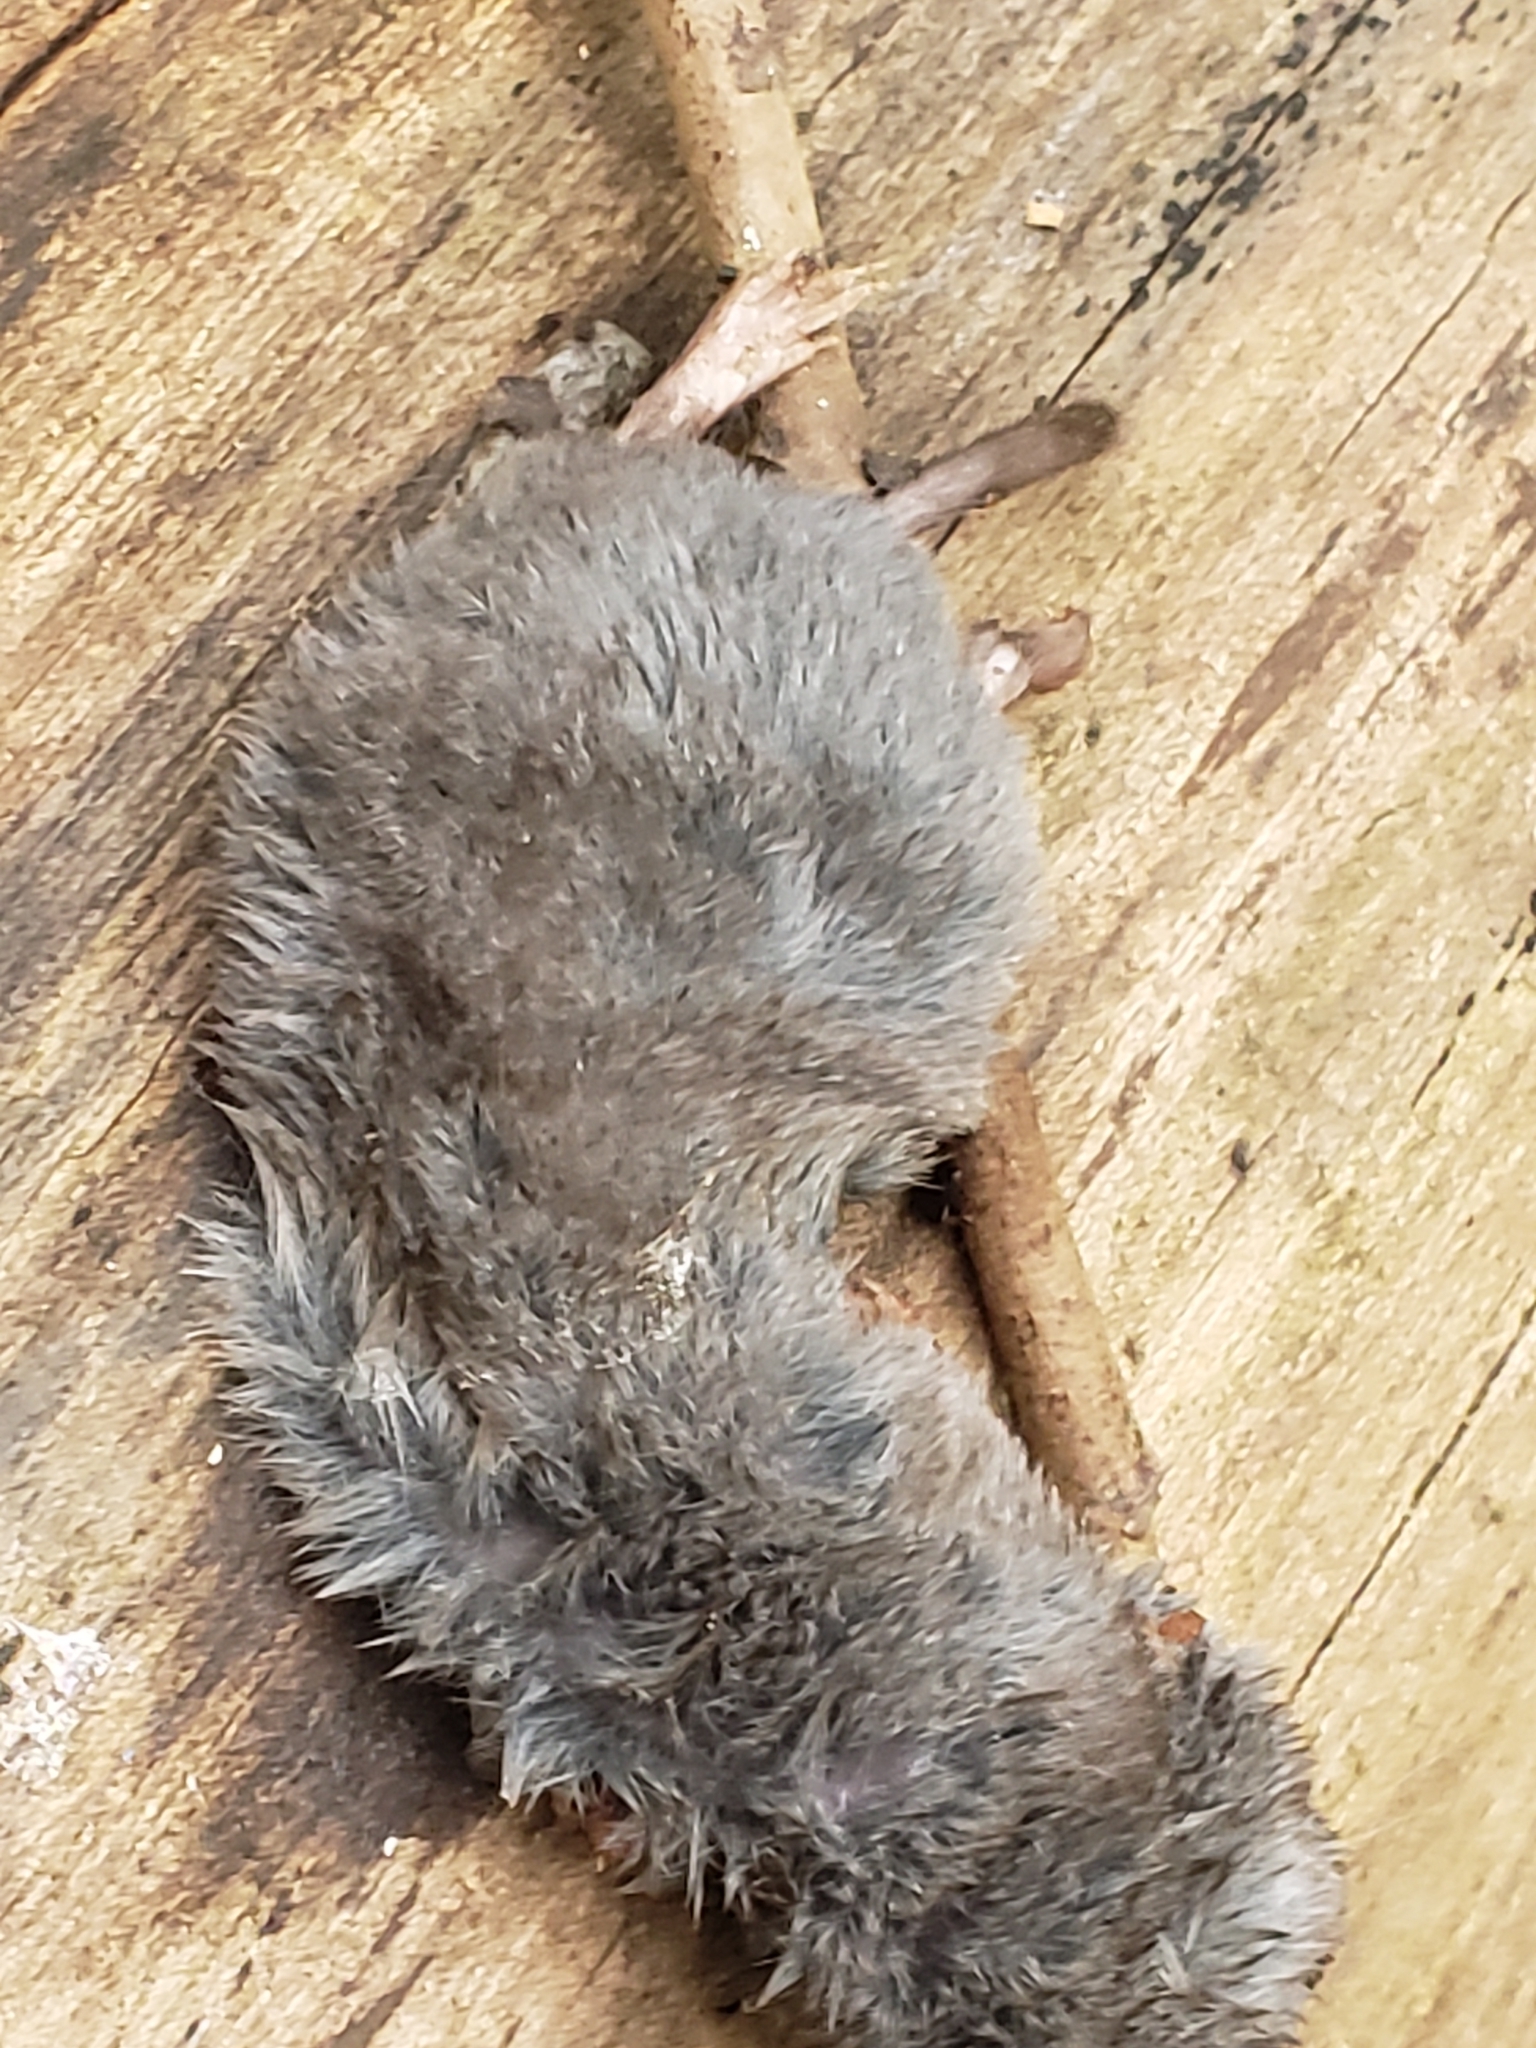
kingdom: Animalia
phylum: Chordata
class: Mammalia
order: Soricomorpha
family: Soricidae
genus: Blarina
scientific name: Blarina brevicauda
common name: Northern short-tailed shrew
